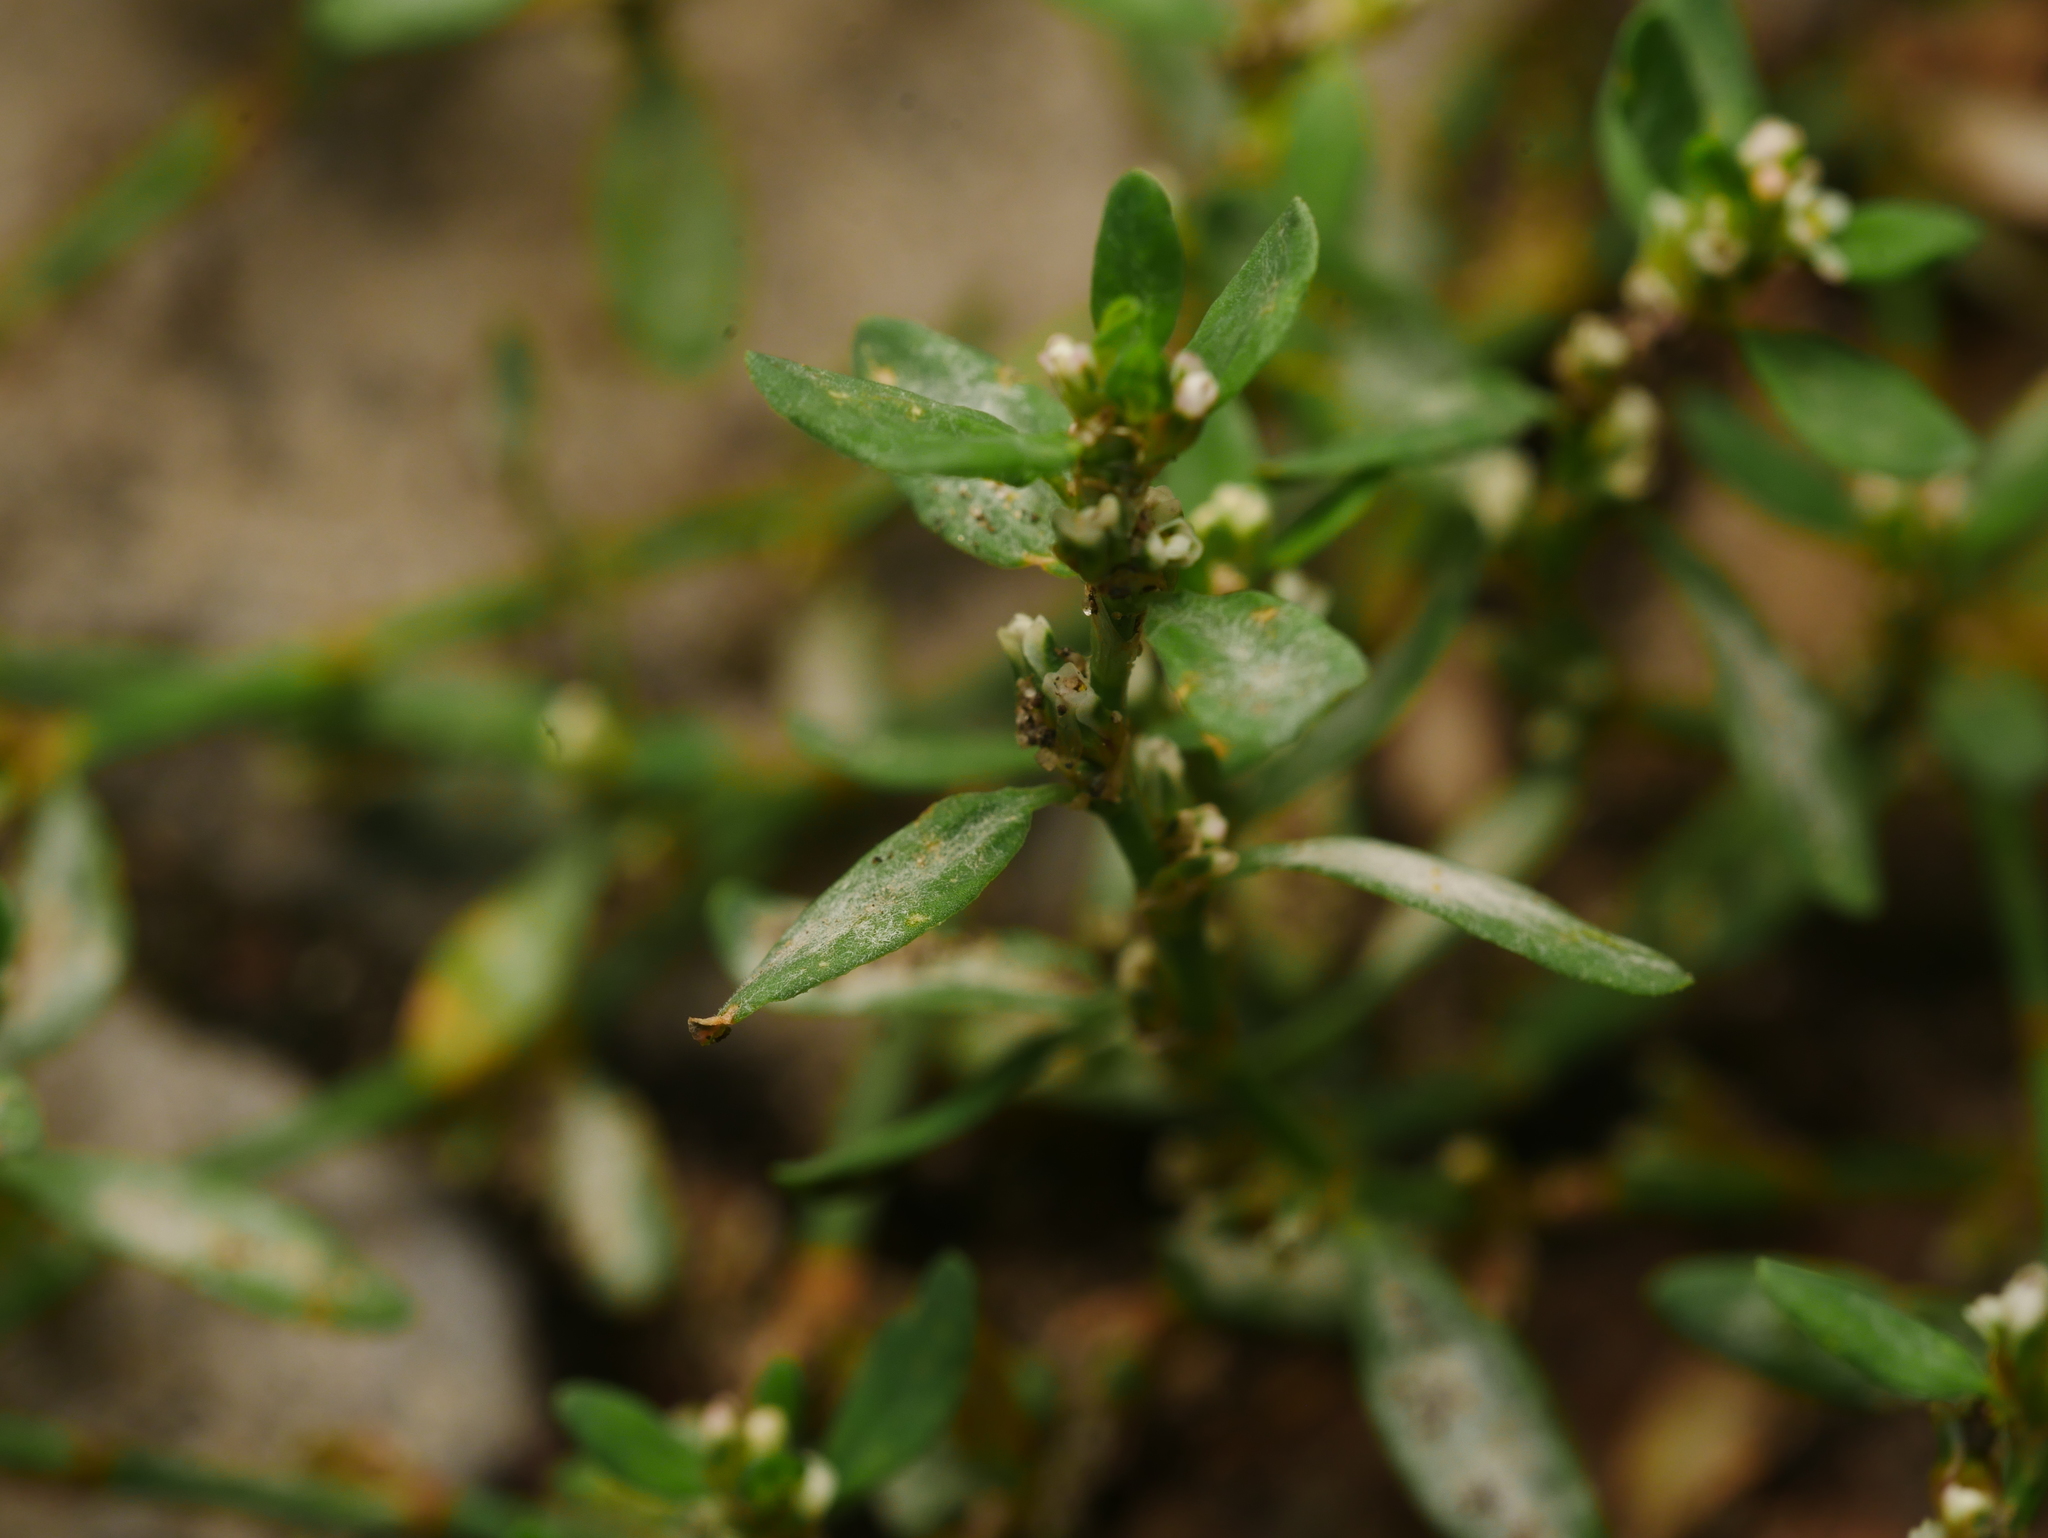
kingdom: Fungi
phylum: Ascomycota
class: Leotiomycetes
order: Helotiales
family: Erysiphaceae
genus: Erysiphe
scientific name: Erysiphe polygoni
